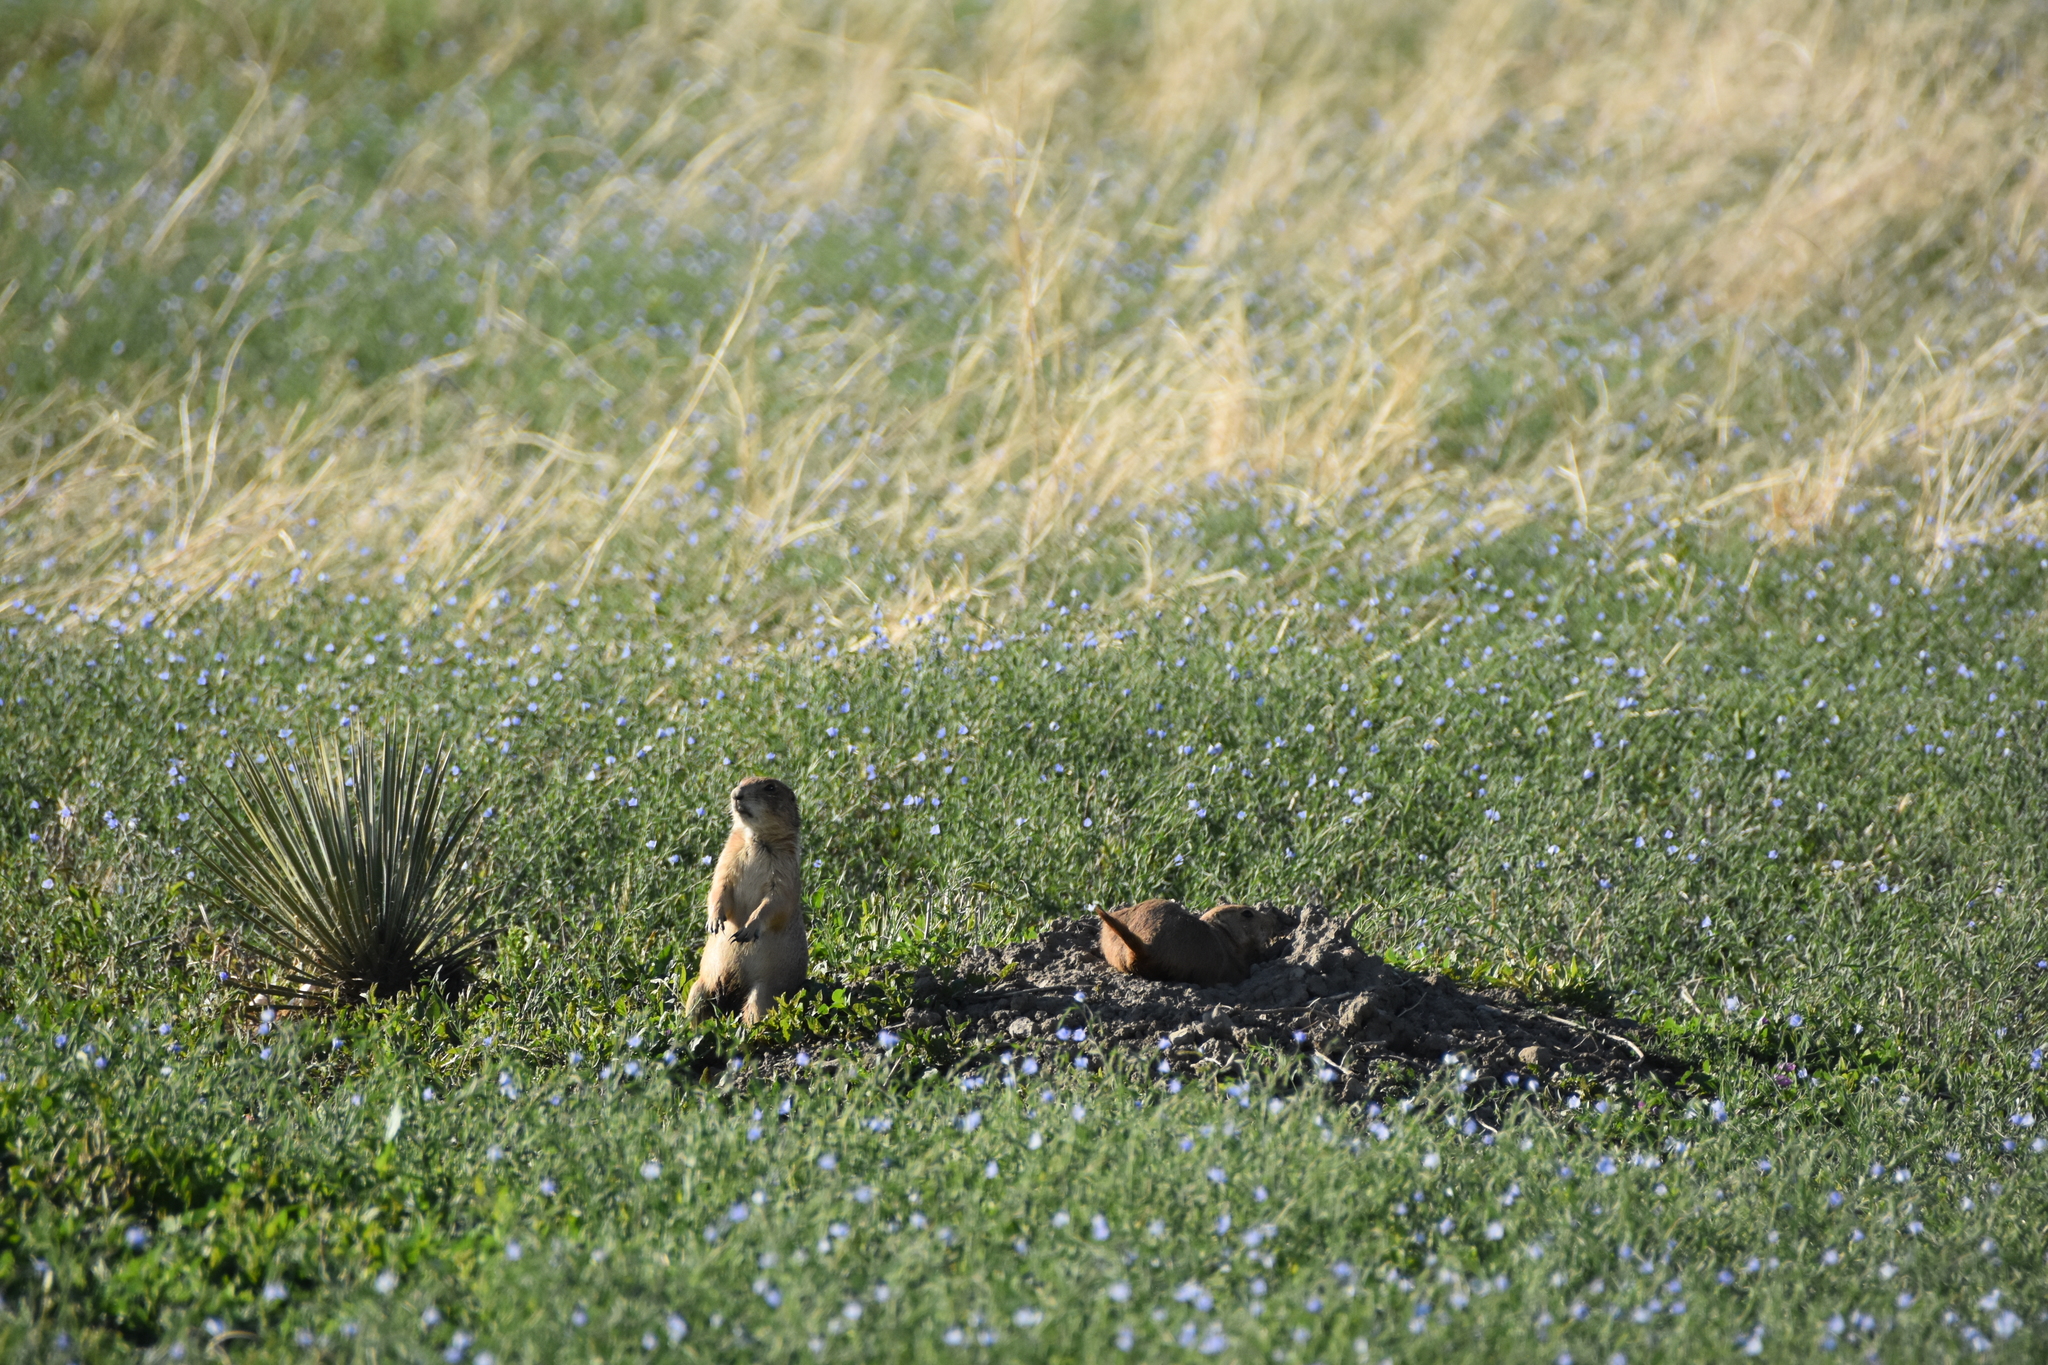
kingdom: Animalia
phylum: Chordata
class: Mammalia
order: Rodentia
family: Sciuridae
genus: Cynomys
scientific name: Cynomys ludovicianus
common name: Black-tailed prairie dog
